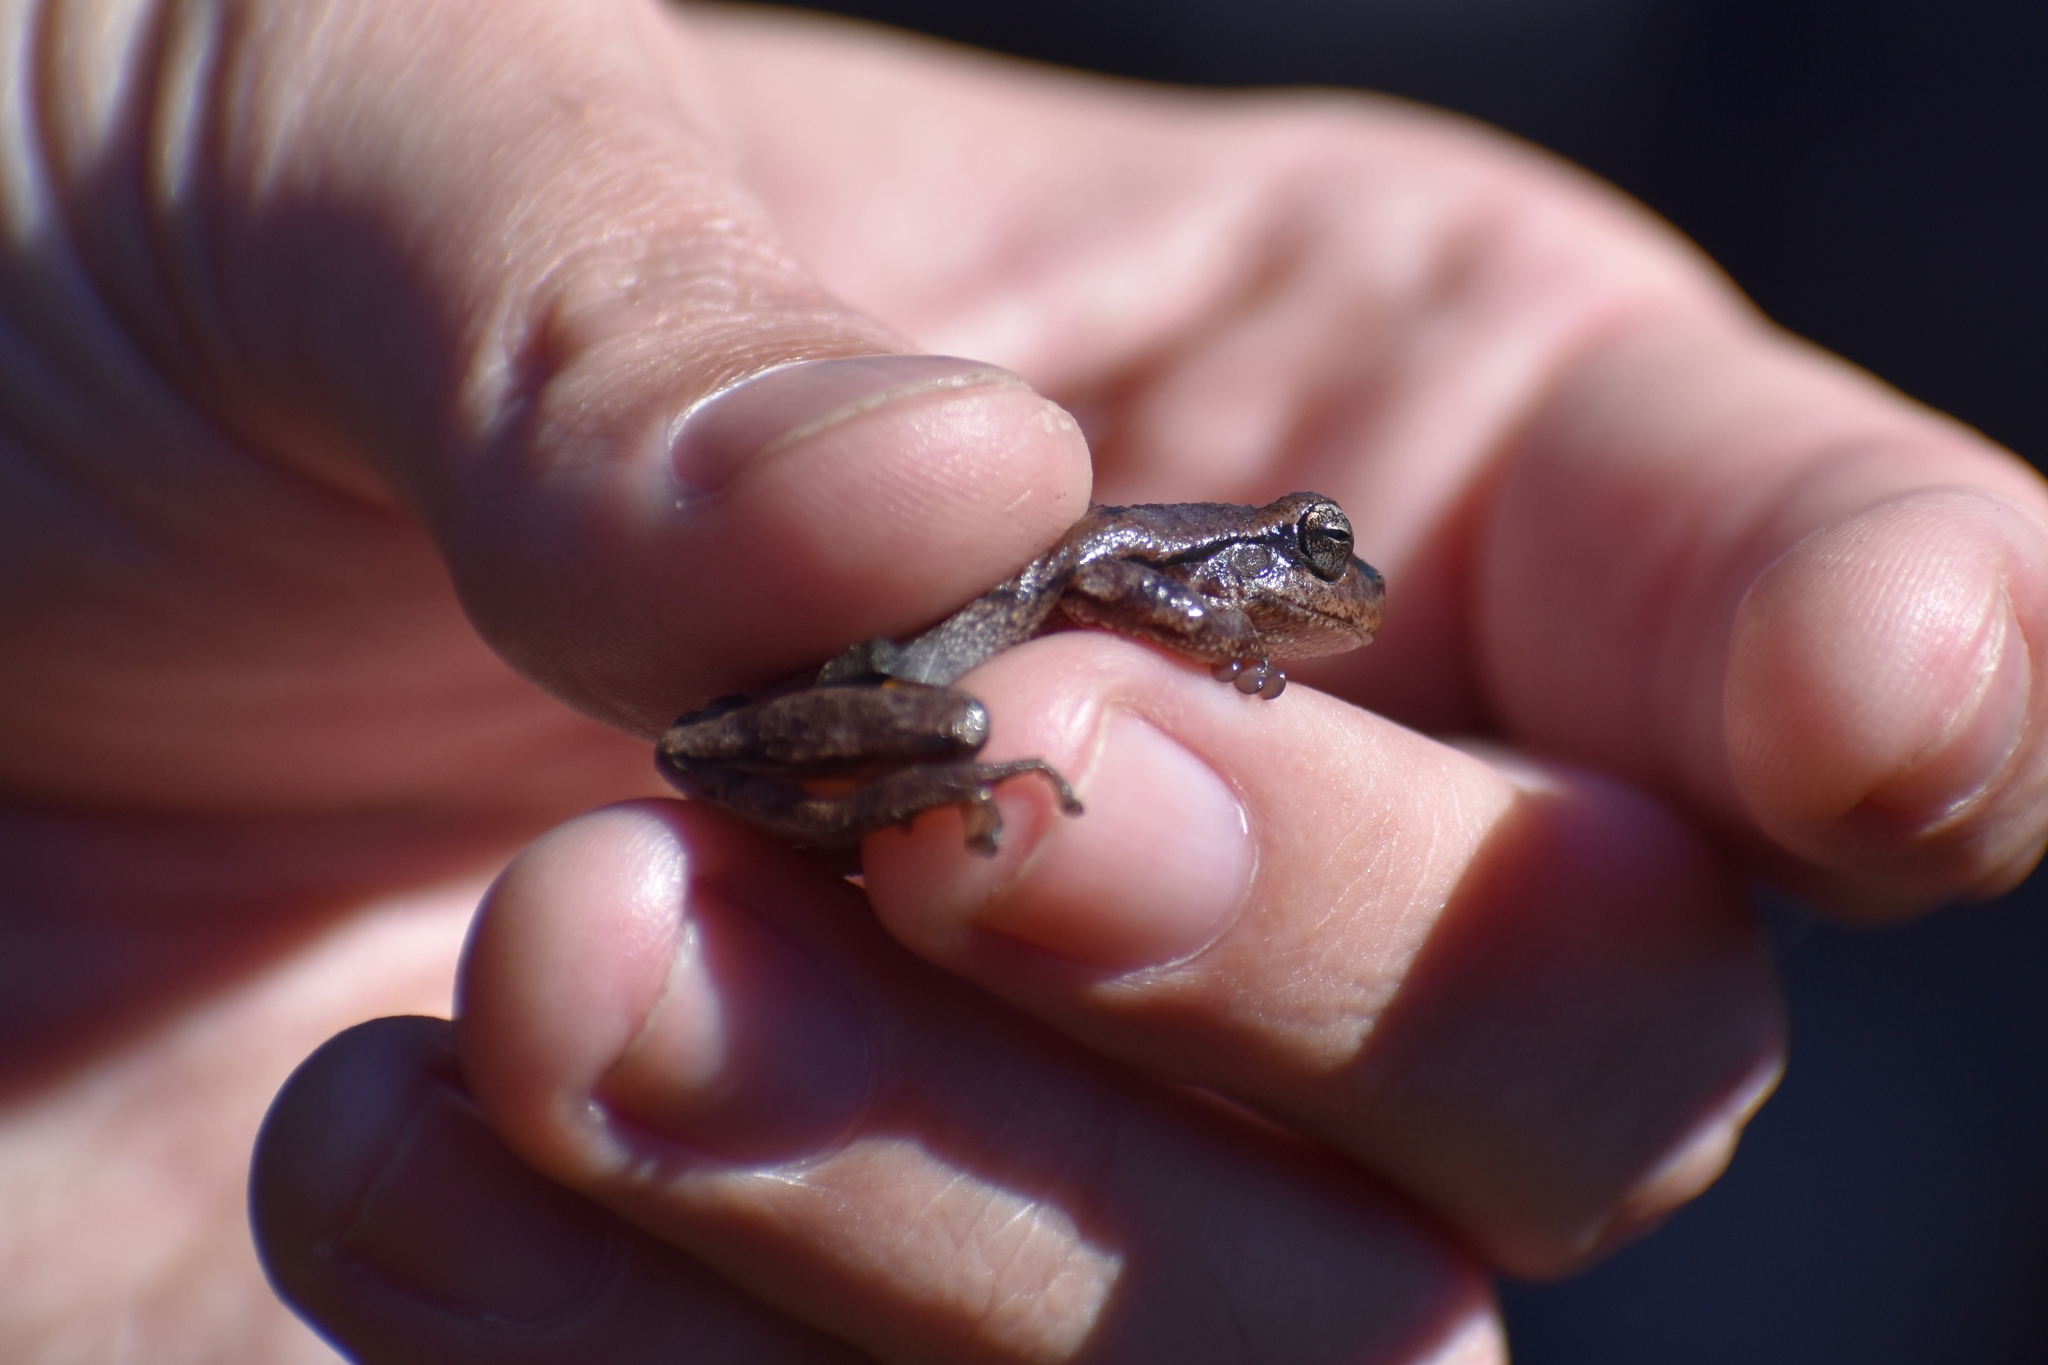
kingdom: Animalia
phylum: Chordata
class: Amphibia
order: Anura
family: Hylidae
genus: Hyla
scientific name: Hyla femoralis
